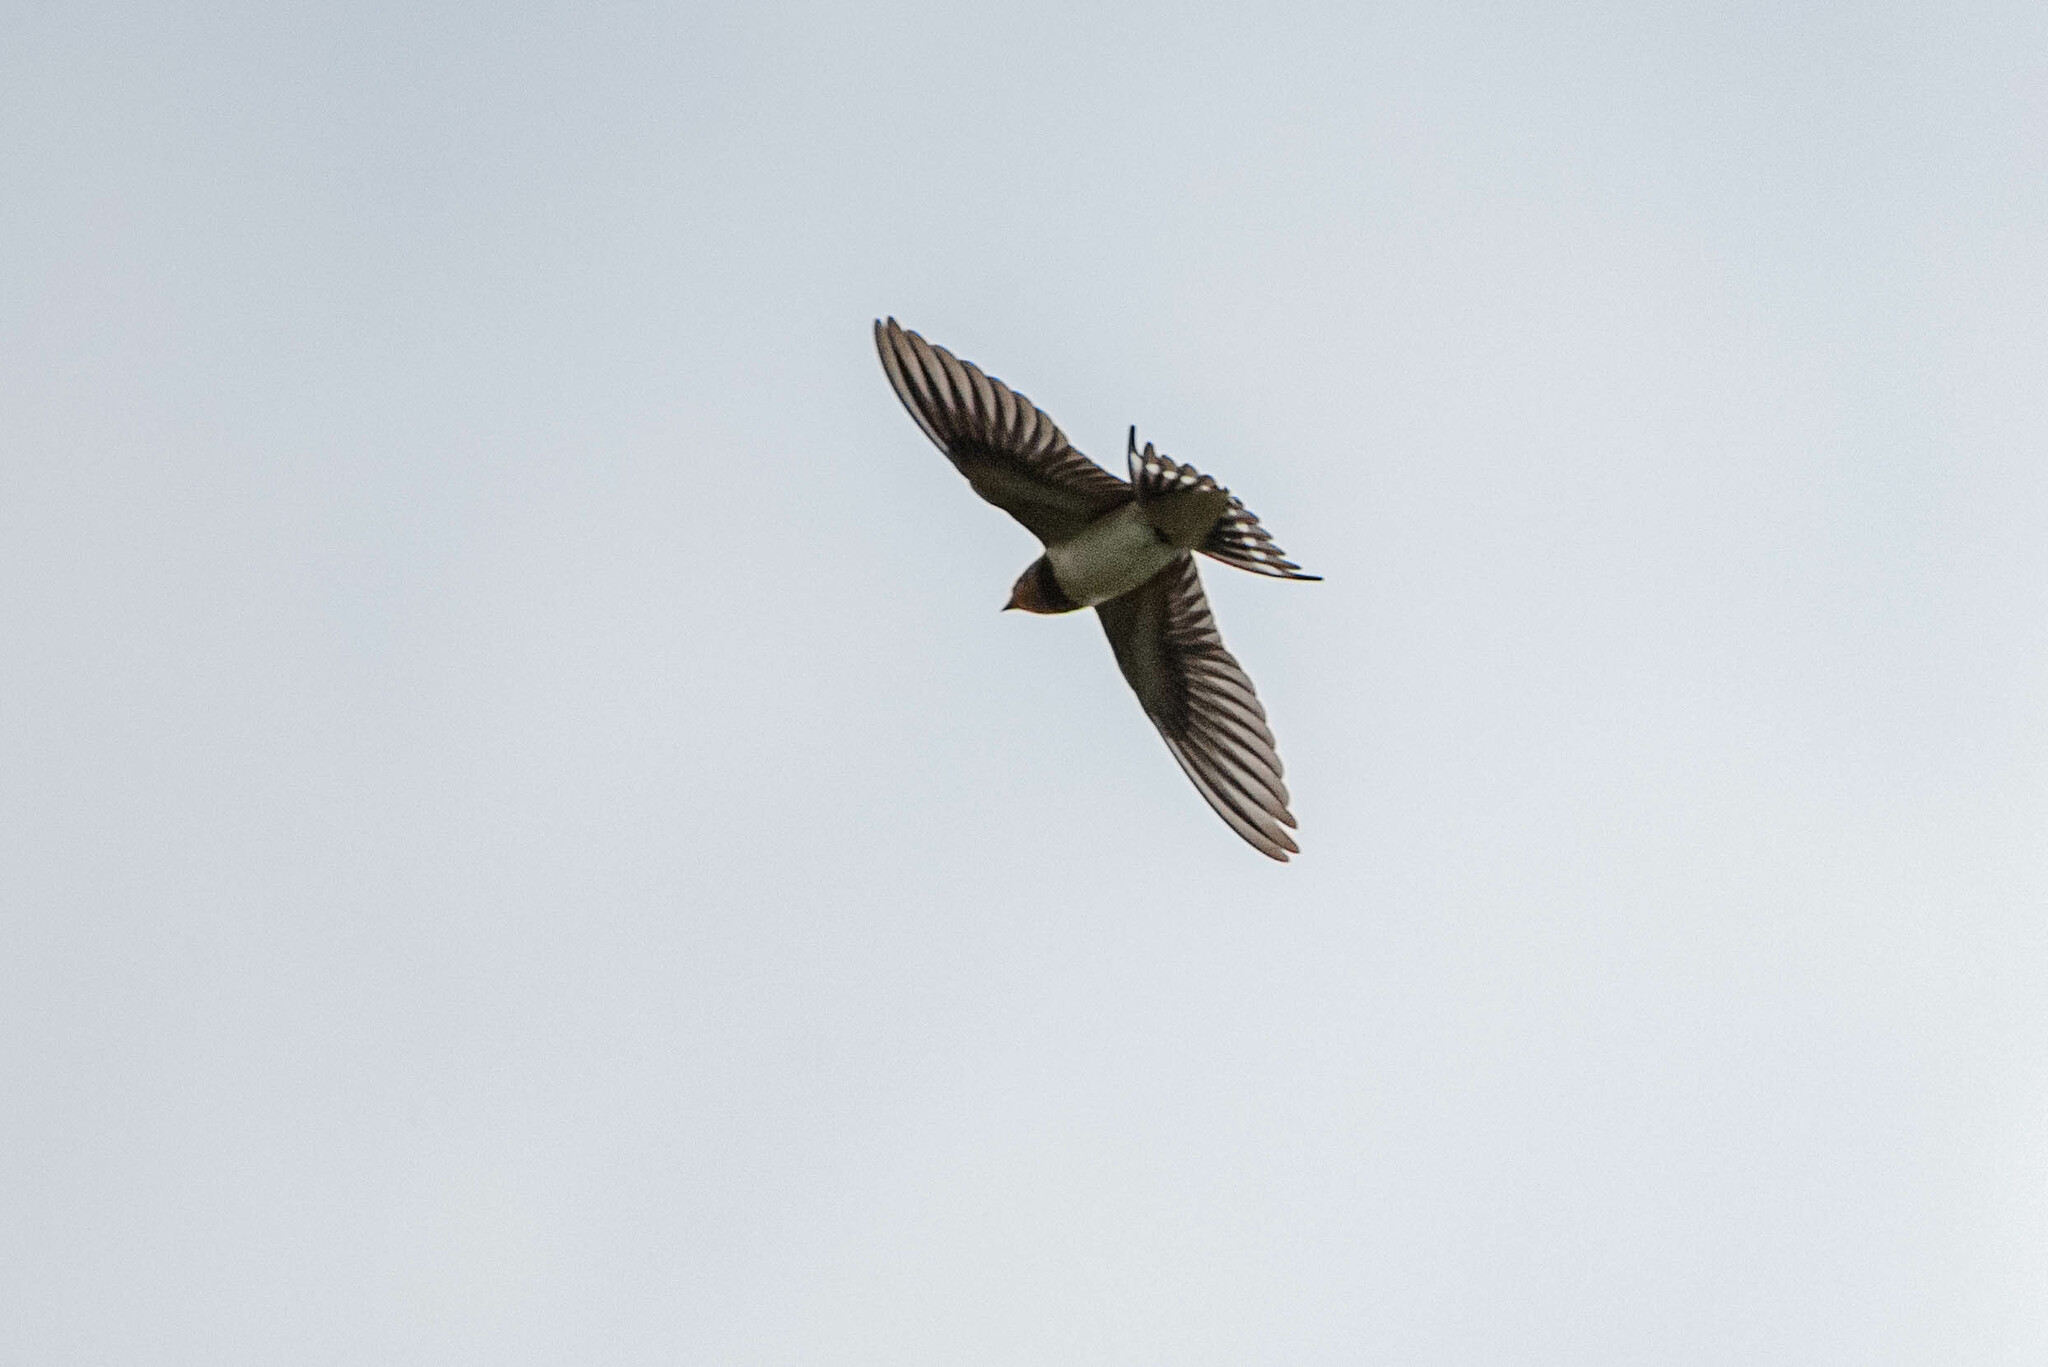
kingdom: Animalia
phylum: Chordata
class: Aves
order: Passeriformes
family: Hirundinidae
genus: Hirundo
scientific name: Hirundo rustica
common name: Barn swallow
